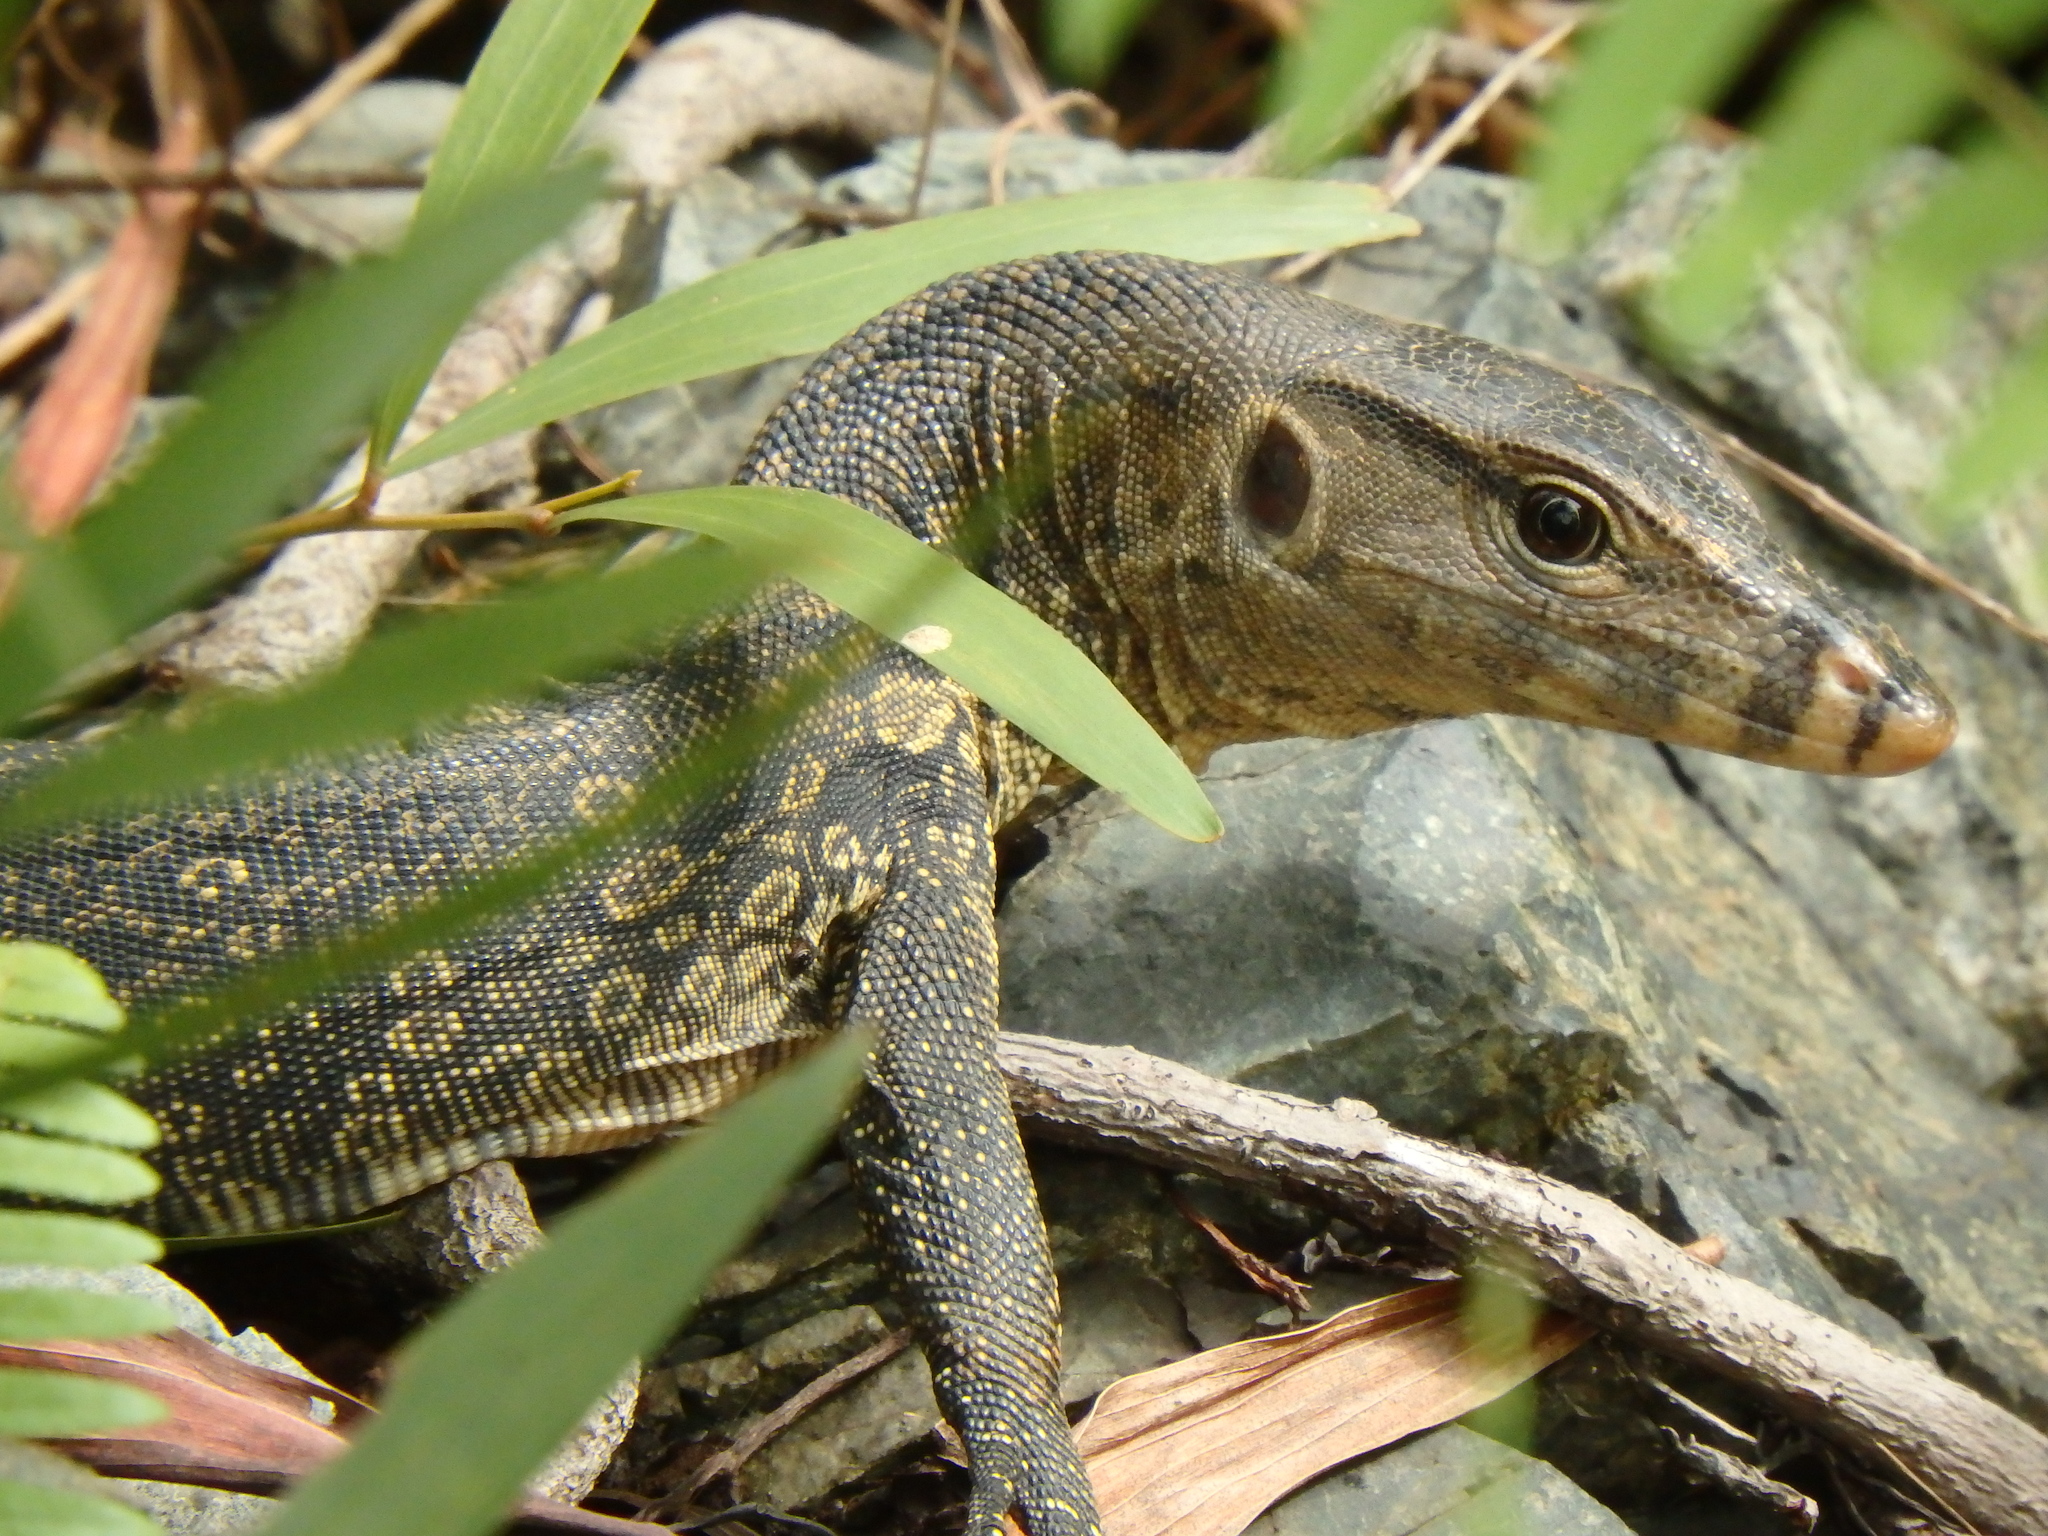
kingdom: Animalia
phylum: Chordata
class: Squamata
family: Varanidae
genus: Varanus
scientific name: Varanus salvator
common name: Common water monitor
